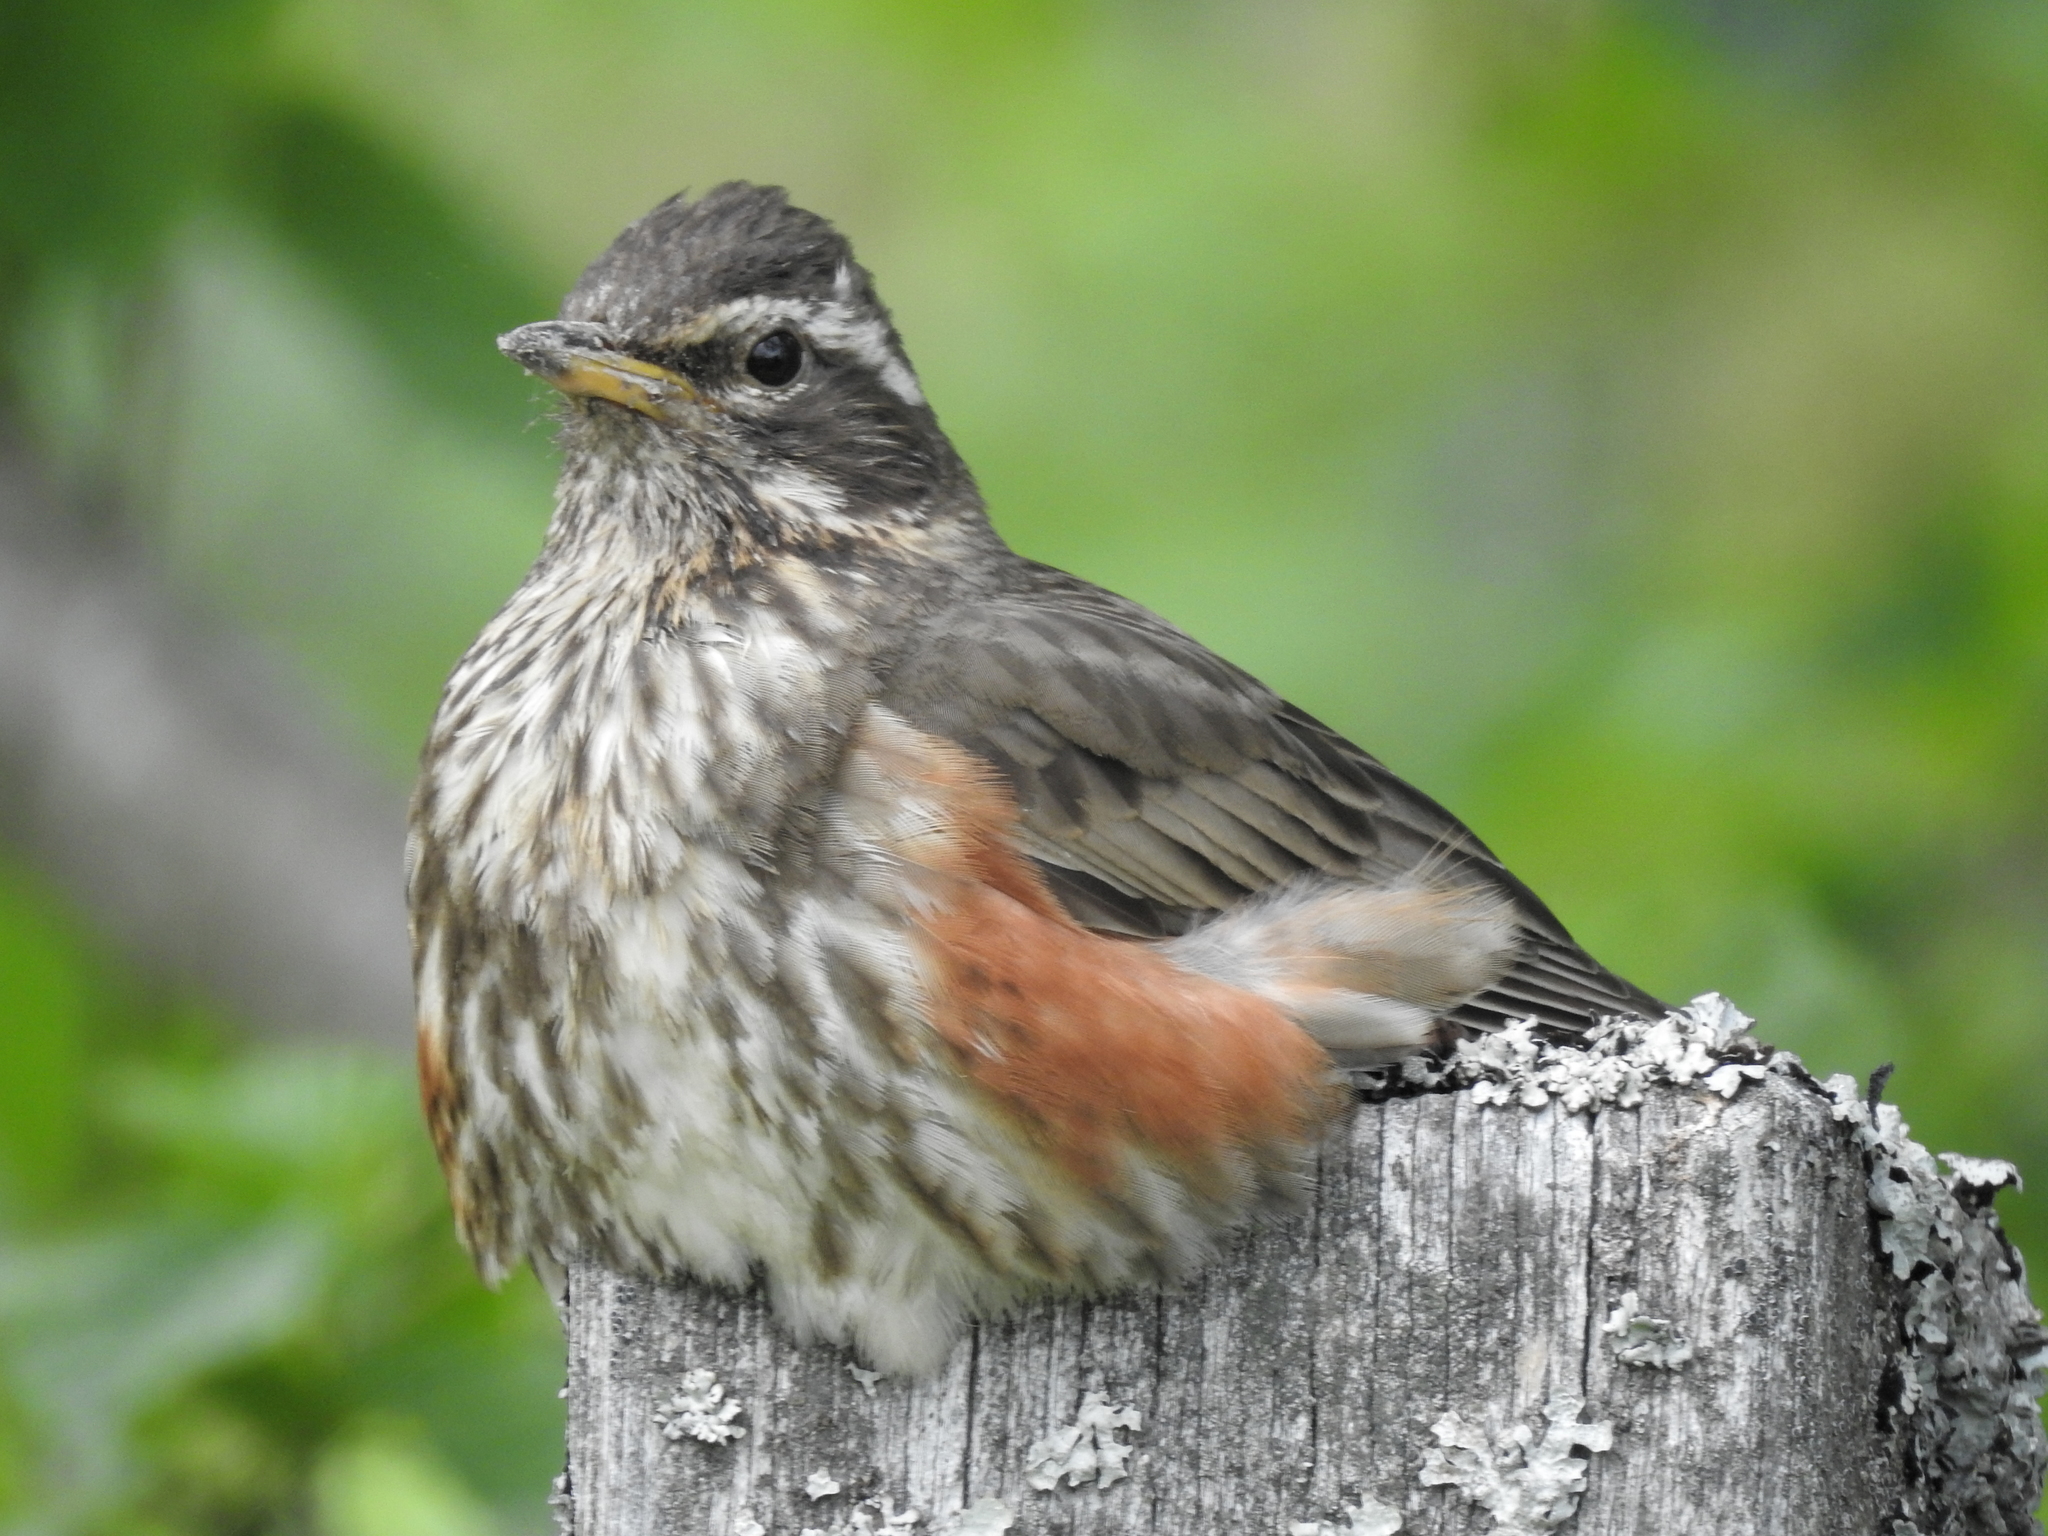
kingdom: Animalia
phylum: Chordata
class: Aves
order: Passeriformes
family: Turdidae
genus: Turdus
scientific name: Turdus iliacus
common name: Redwing
